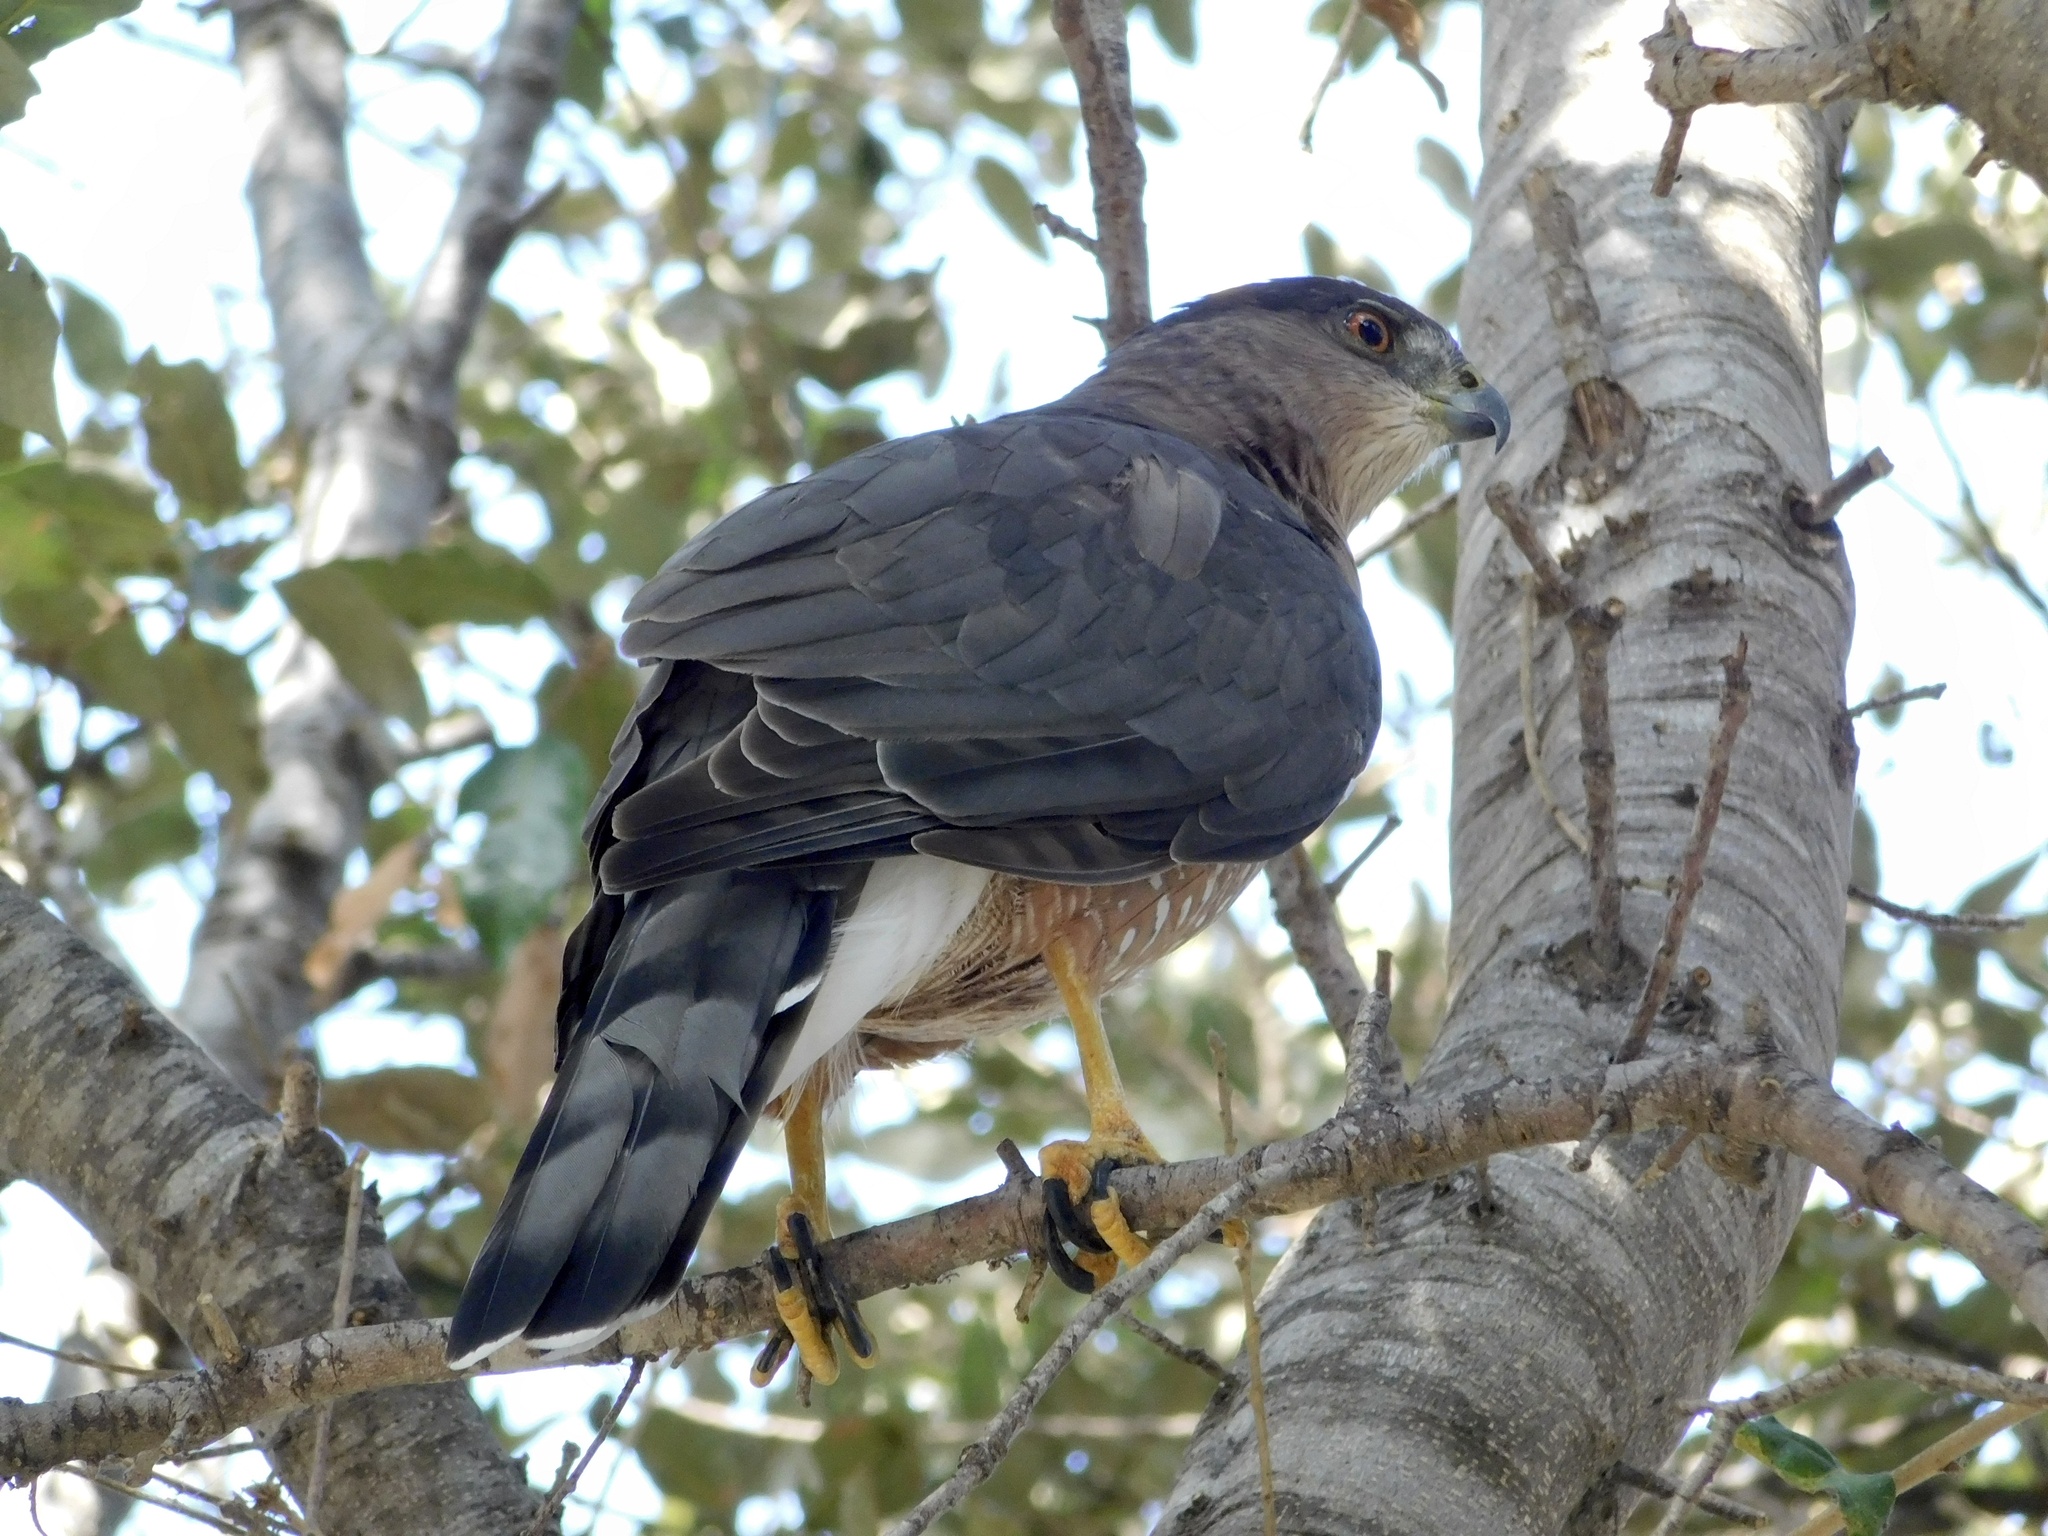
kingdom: Animalia
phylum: Chordata
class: Aves
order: Accipitriformes
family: Accipitridae
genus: Accipiter
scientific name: Accipiter cooperii
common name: Cooper's hawk
